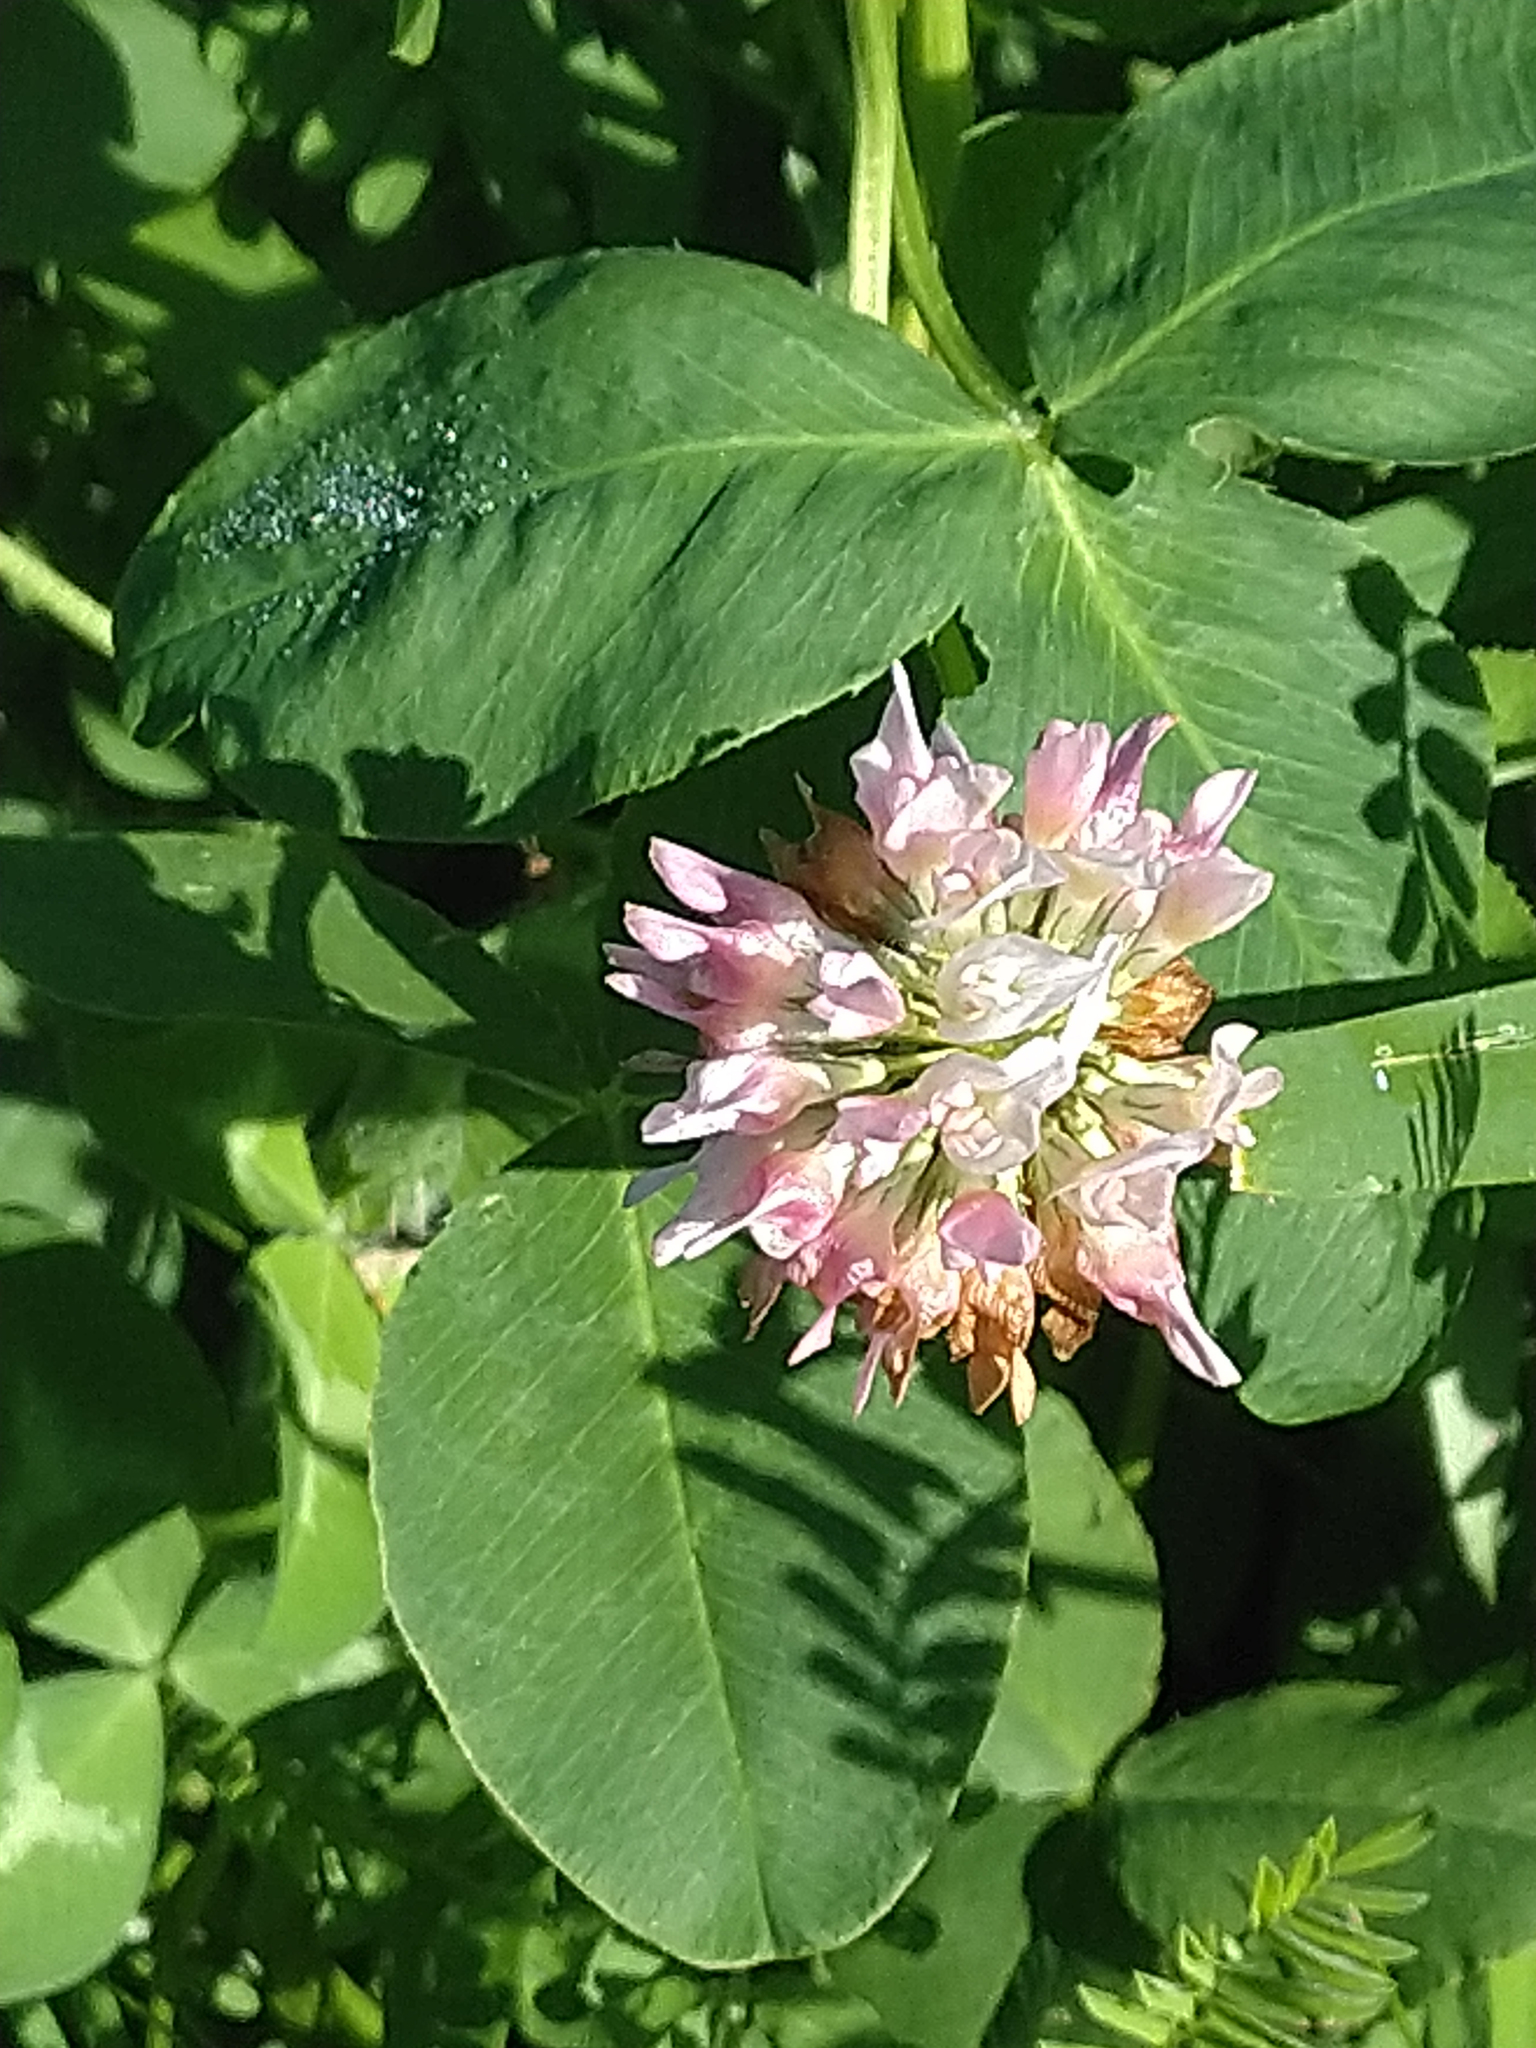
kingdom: Plantae
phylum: Tracheophyta
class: Magnoliopsida
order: Fabales
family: Fabaceae
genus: Trifolium
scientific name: Trifolium hybridum
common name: Alsike clover
